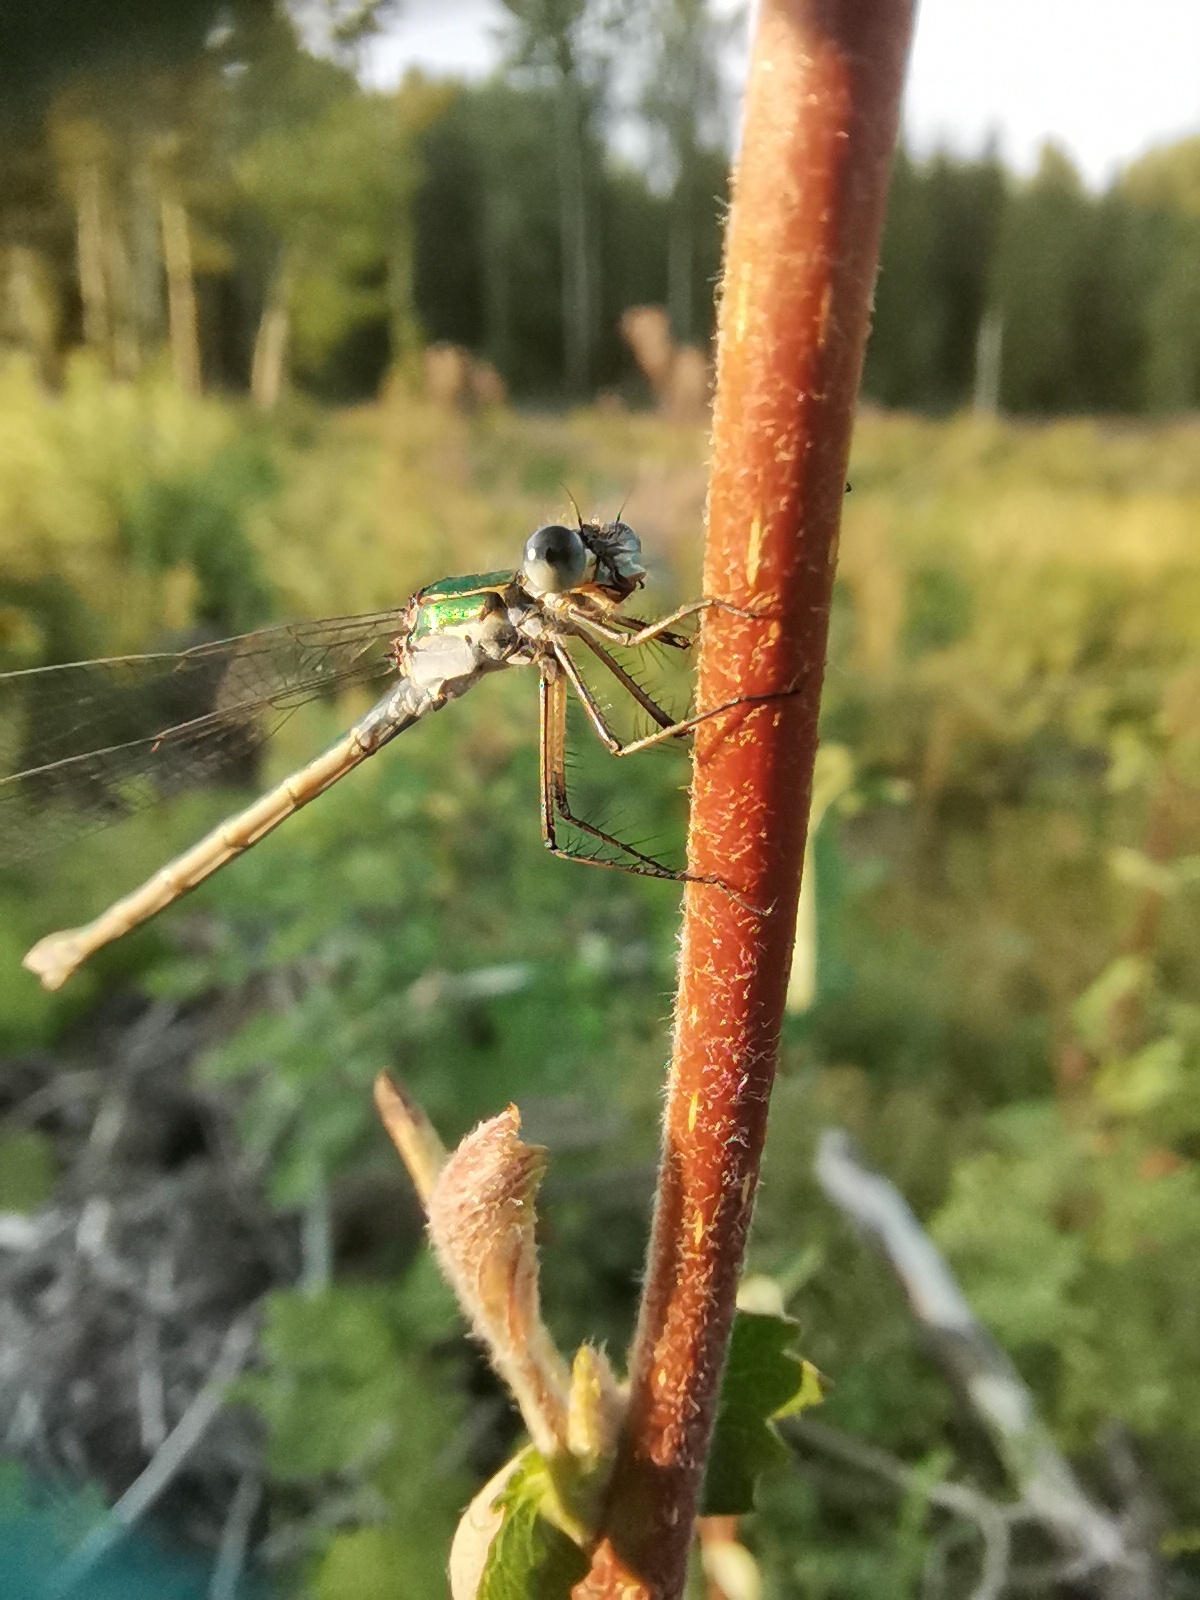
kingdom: Animalia
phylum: Arthropoda
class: Insecta
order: Odonata
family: Lestidae
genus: Lestes
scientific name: Lestes sponsa
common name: Common spreadwing
